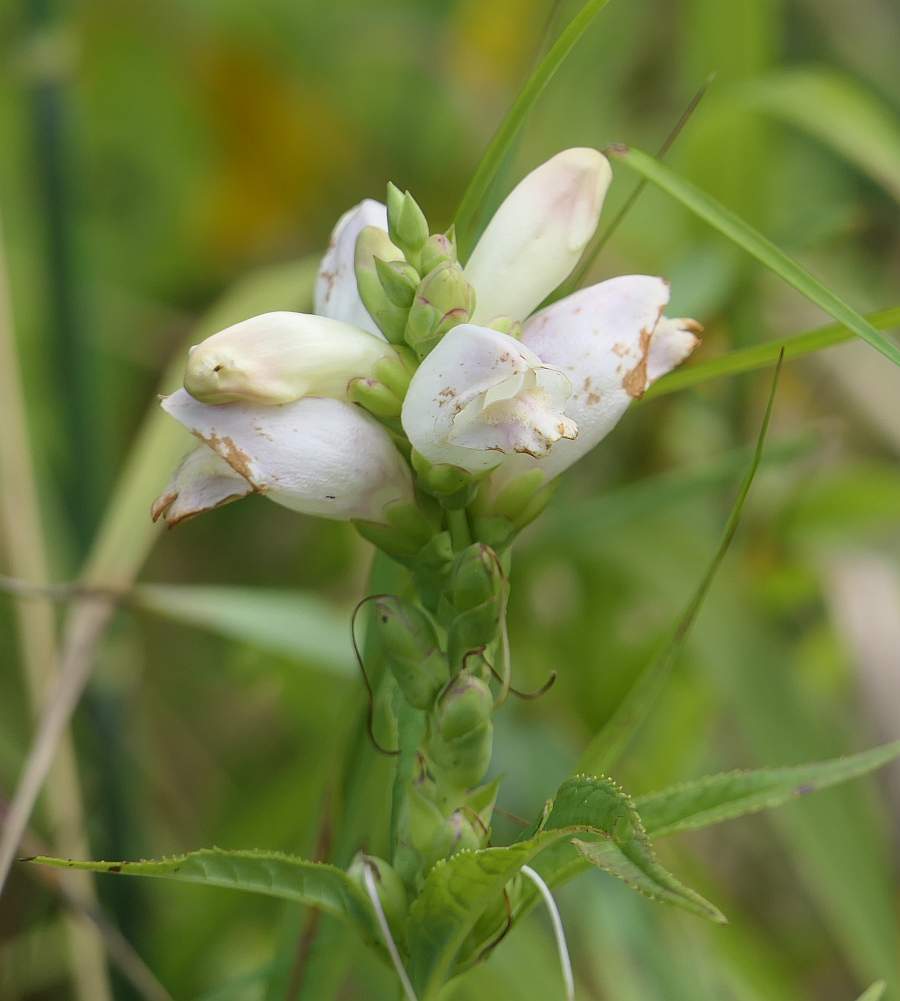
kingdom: Plantae
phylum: Tracheophyta
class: Magnoliopsida
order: Lamiales
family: Plantaginaceae
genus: Chelone
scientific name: Chelone glabra
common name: Snakehead
